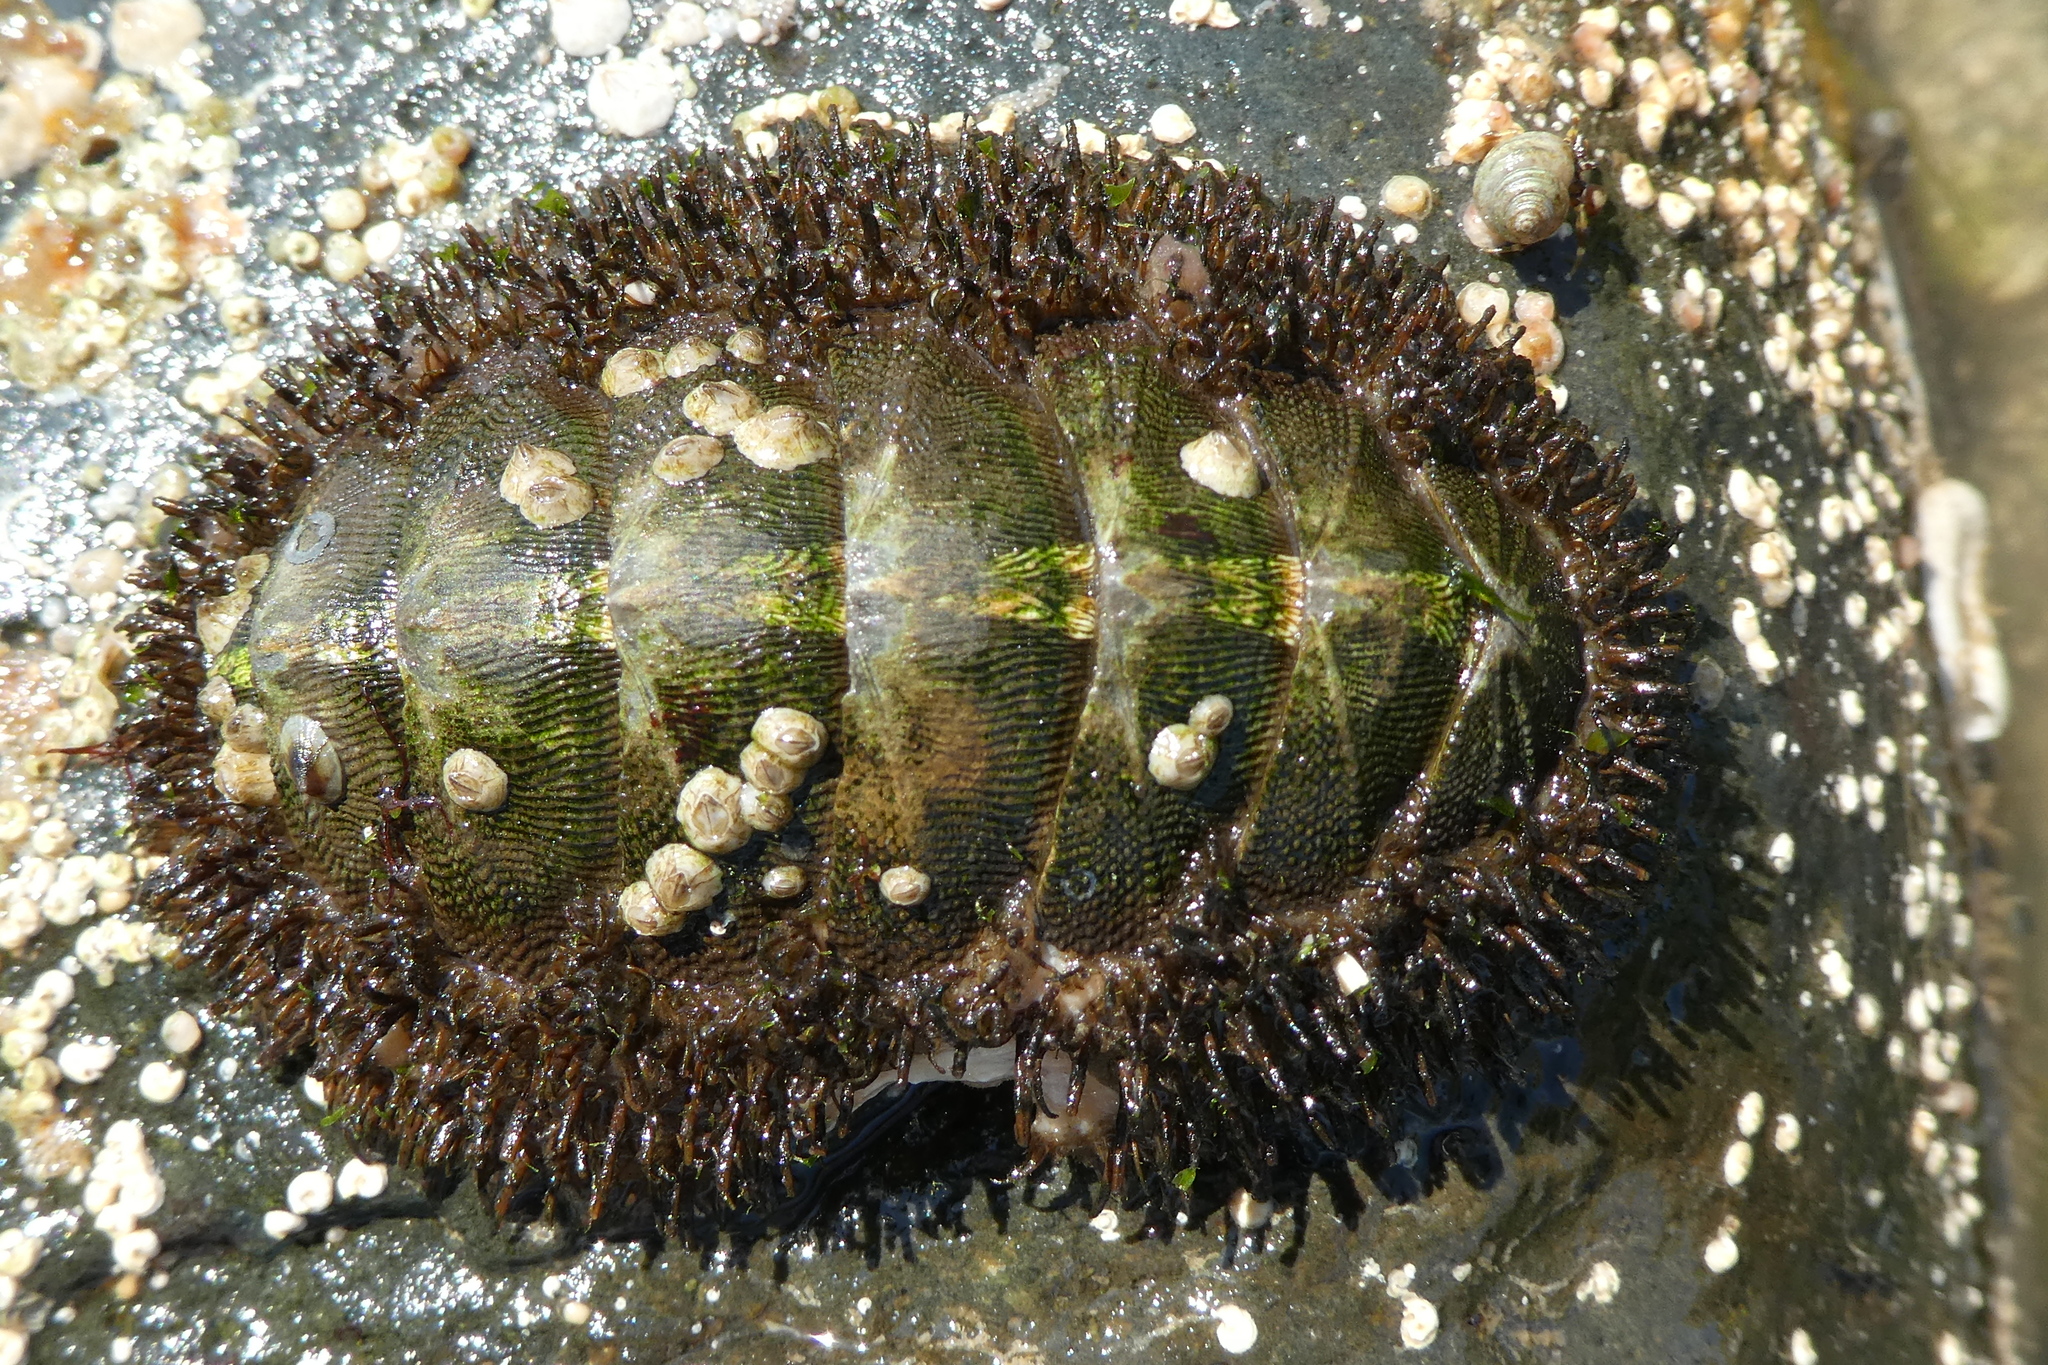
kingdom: Animalia
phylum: Mollusca
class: Polyplacophora
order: Chitonida
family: Mopaliidae
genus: Mopalia
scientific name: Mopalia muscosa
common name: Mossy chiton
